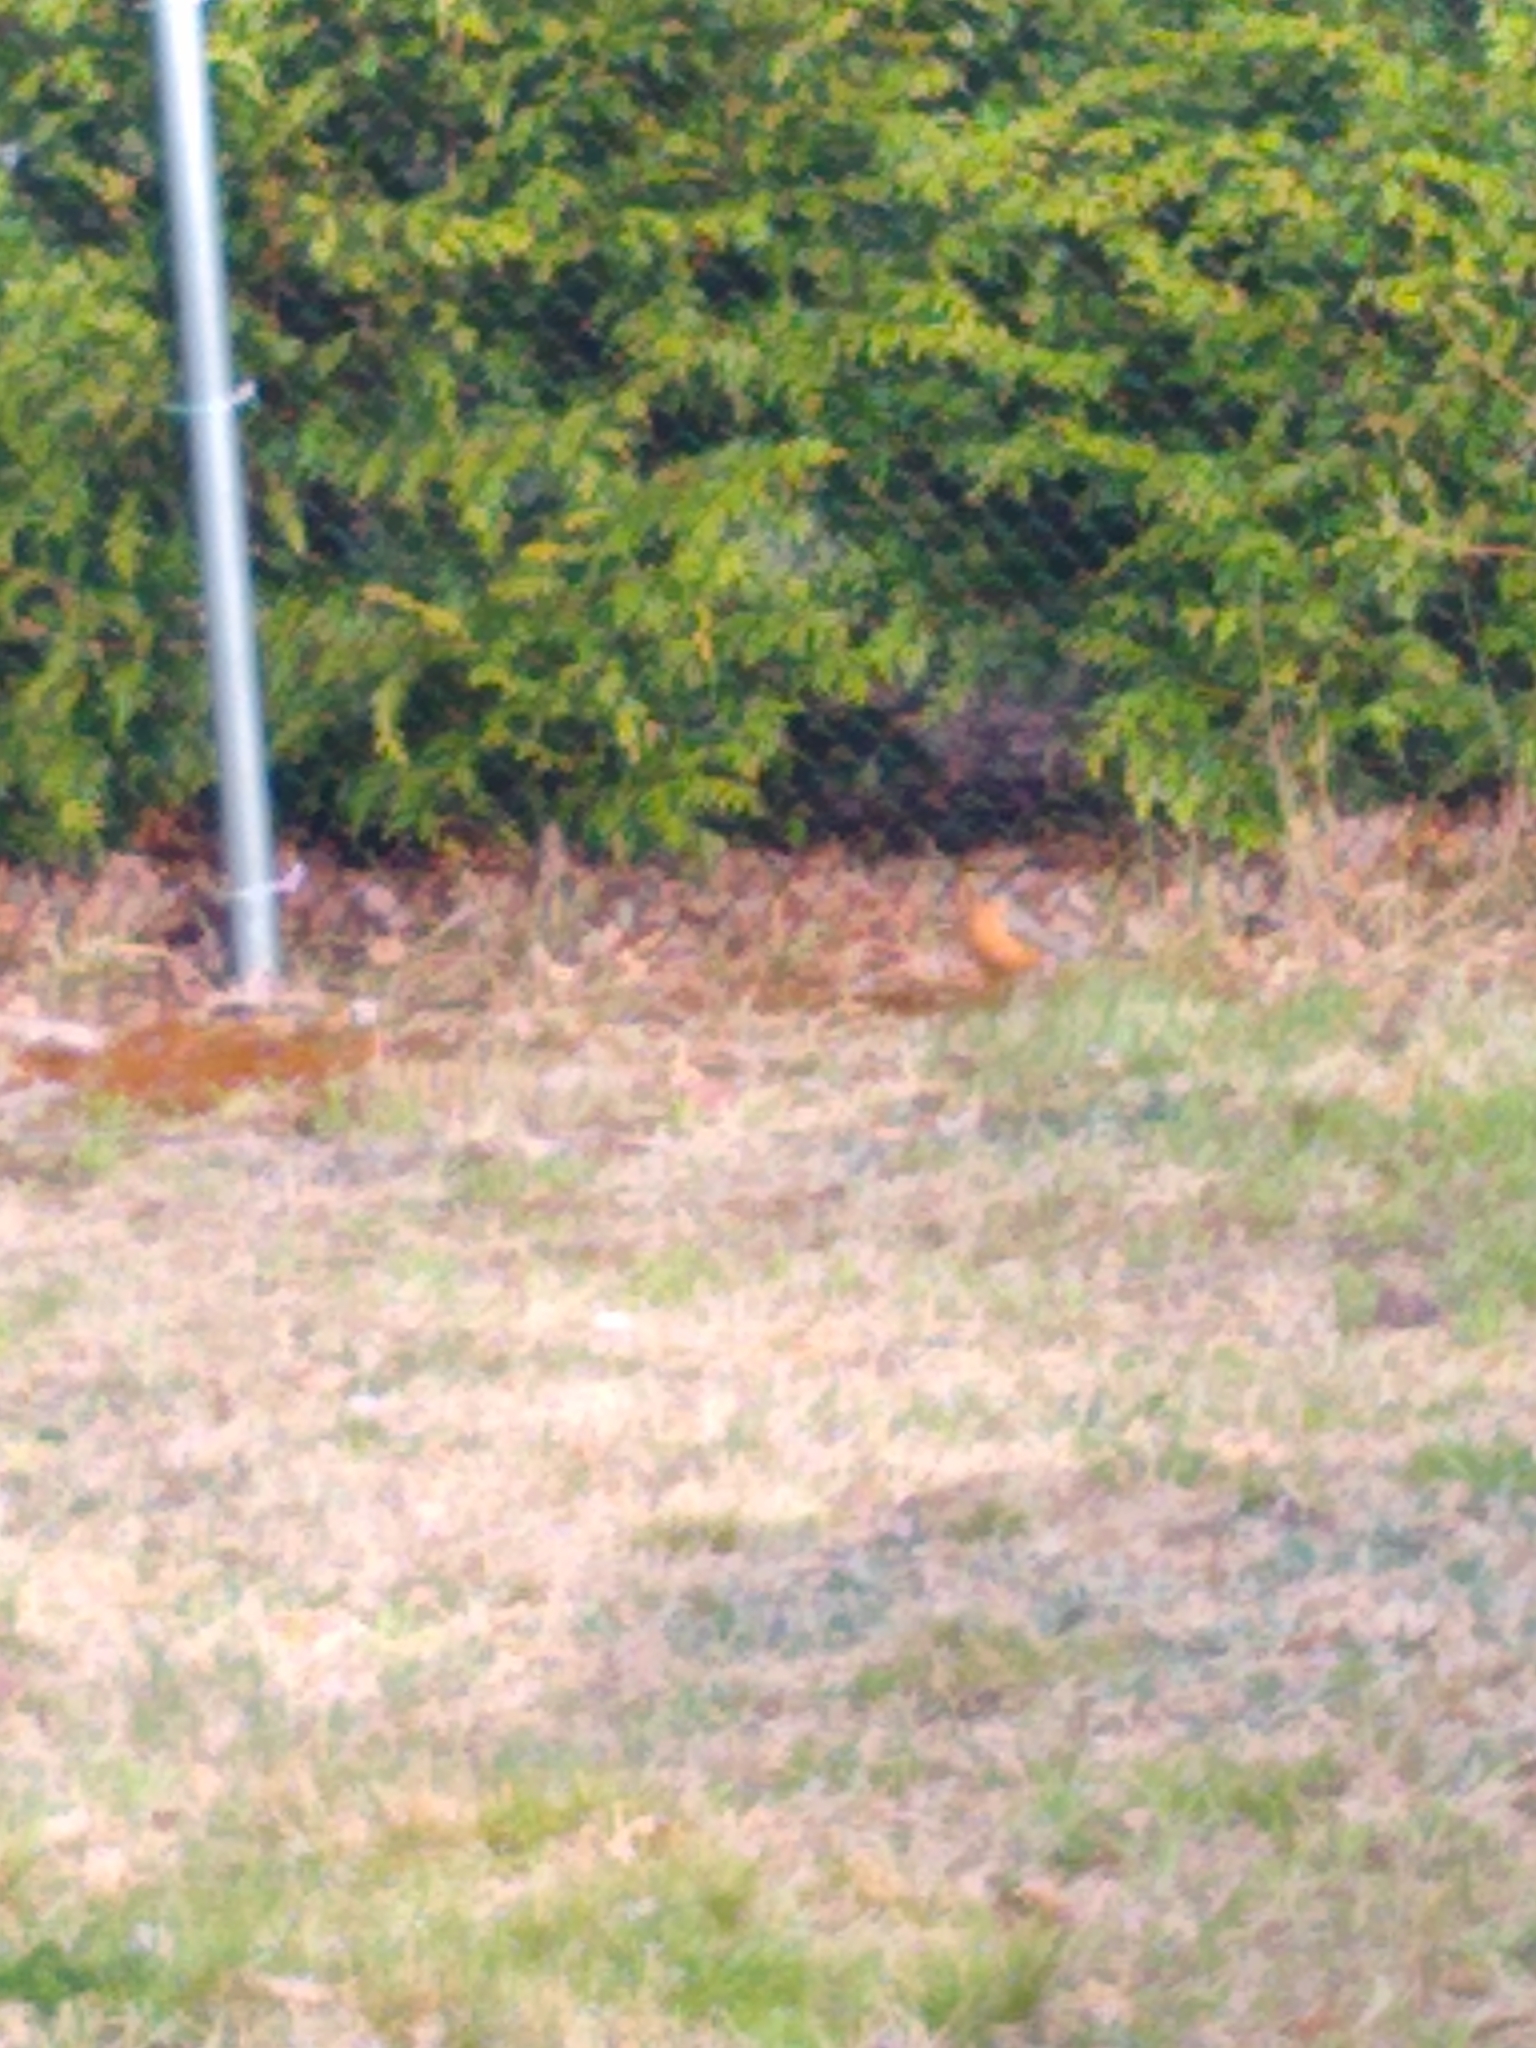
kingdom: Animalia
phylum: Chordata
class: Aves
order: Passeriformes
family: Turdidae
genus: Turdus
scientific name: Turdus migratorius
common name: American robin
